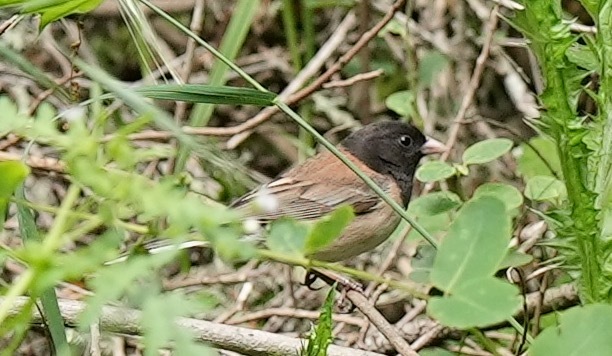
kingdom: Animalia
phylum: Chordata
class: Aves
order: Passeriformes
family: Passerellidae
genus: Junco
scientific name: Junco hyemalis
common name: Dark-eyed junco
